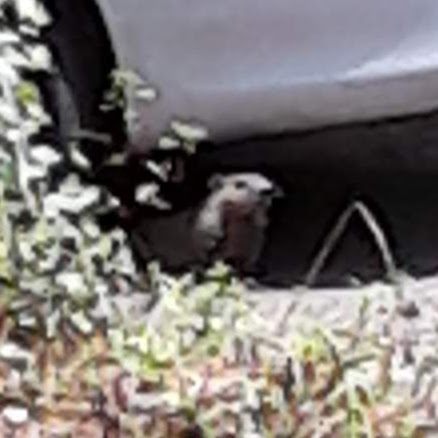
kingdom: Animalia
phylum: Chordata
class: Mammalia
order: Rodentia
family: Sciuridae
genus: Marmota
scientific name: Marmota monax
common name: Groundhog
